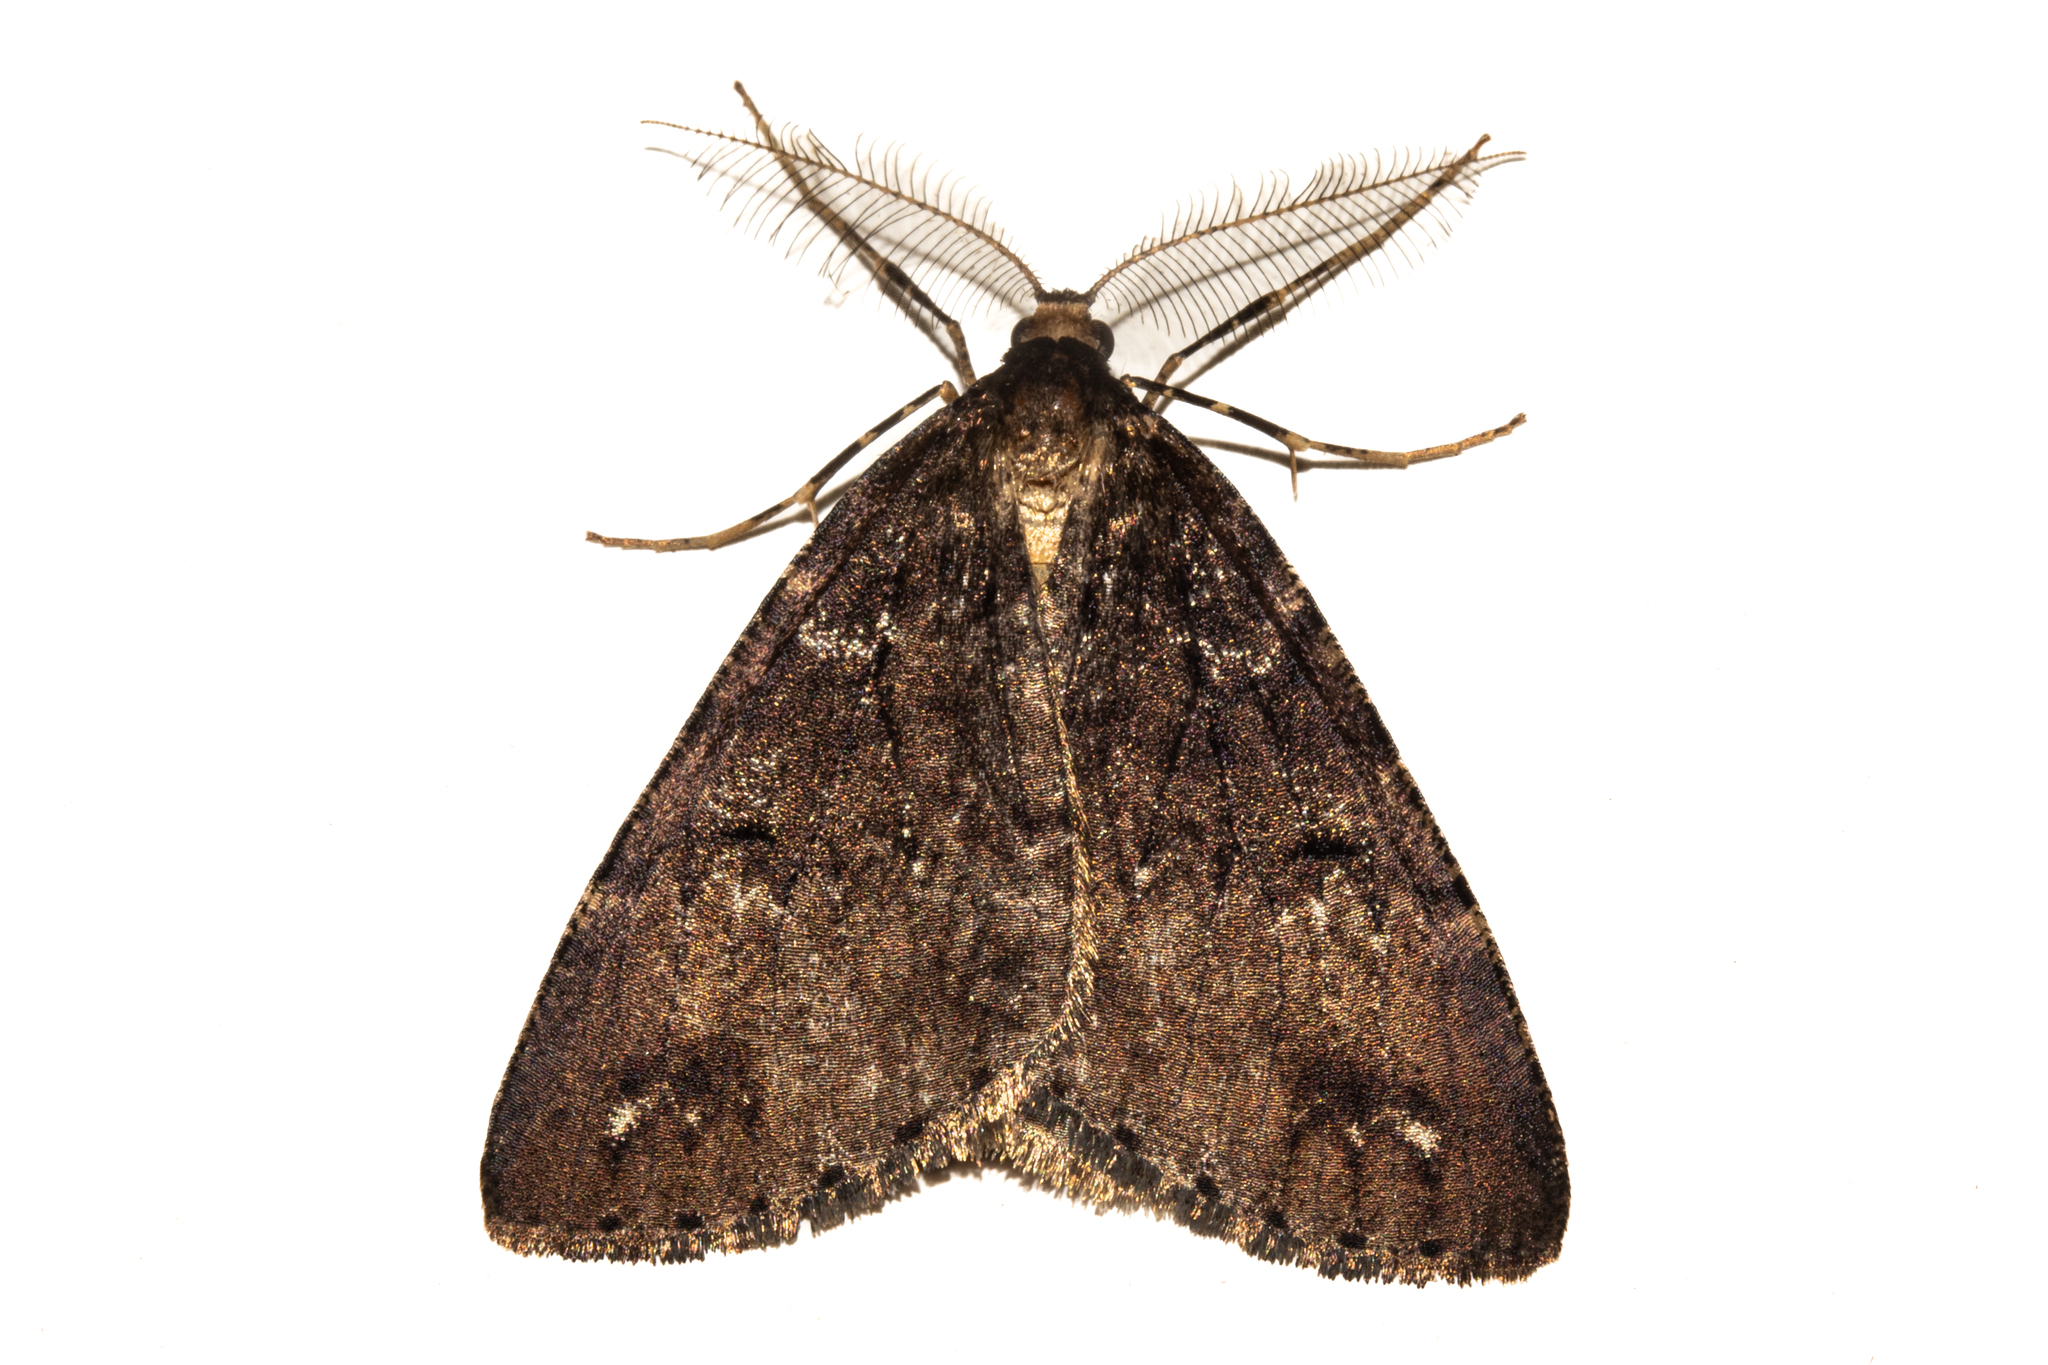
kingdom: Animalia
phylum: Arthropoda
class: Insecta
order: Lepidoptera
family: Geometridae
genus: Pseudocoremia
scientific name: Pseudocoremia berylia
